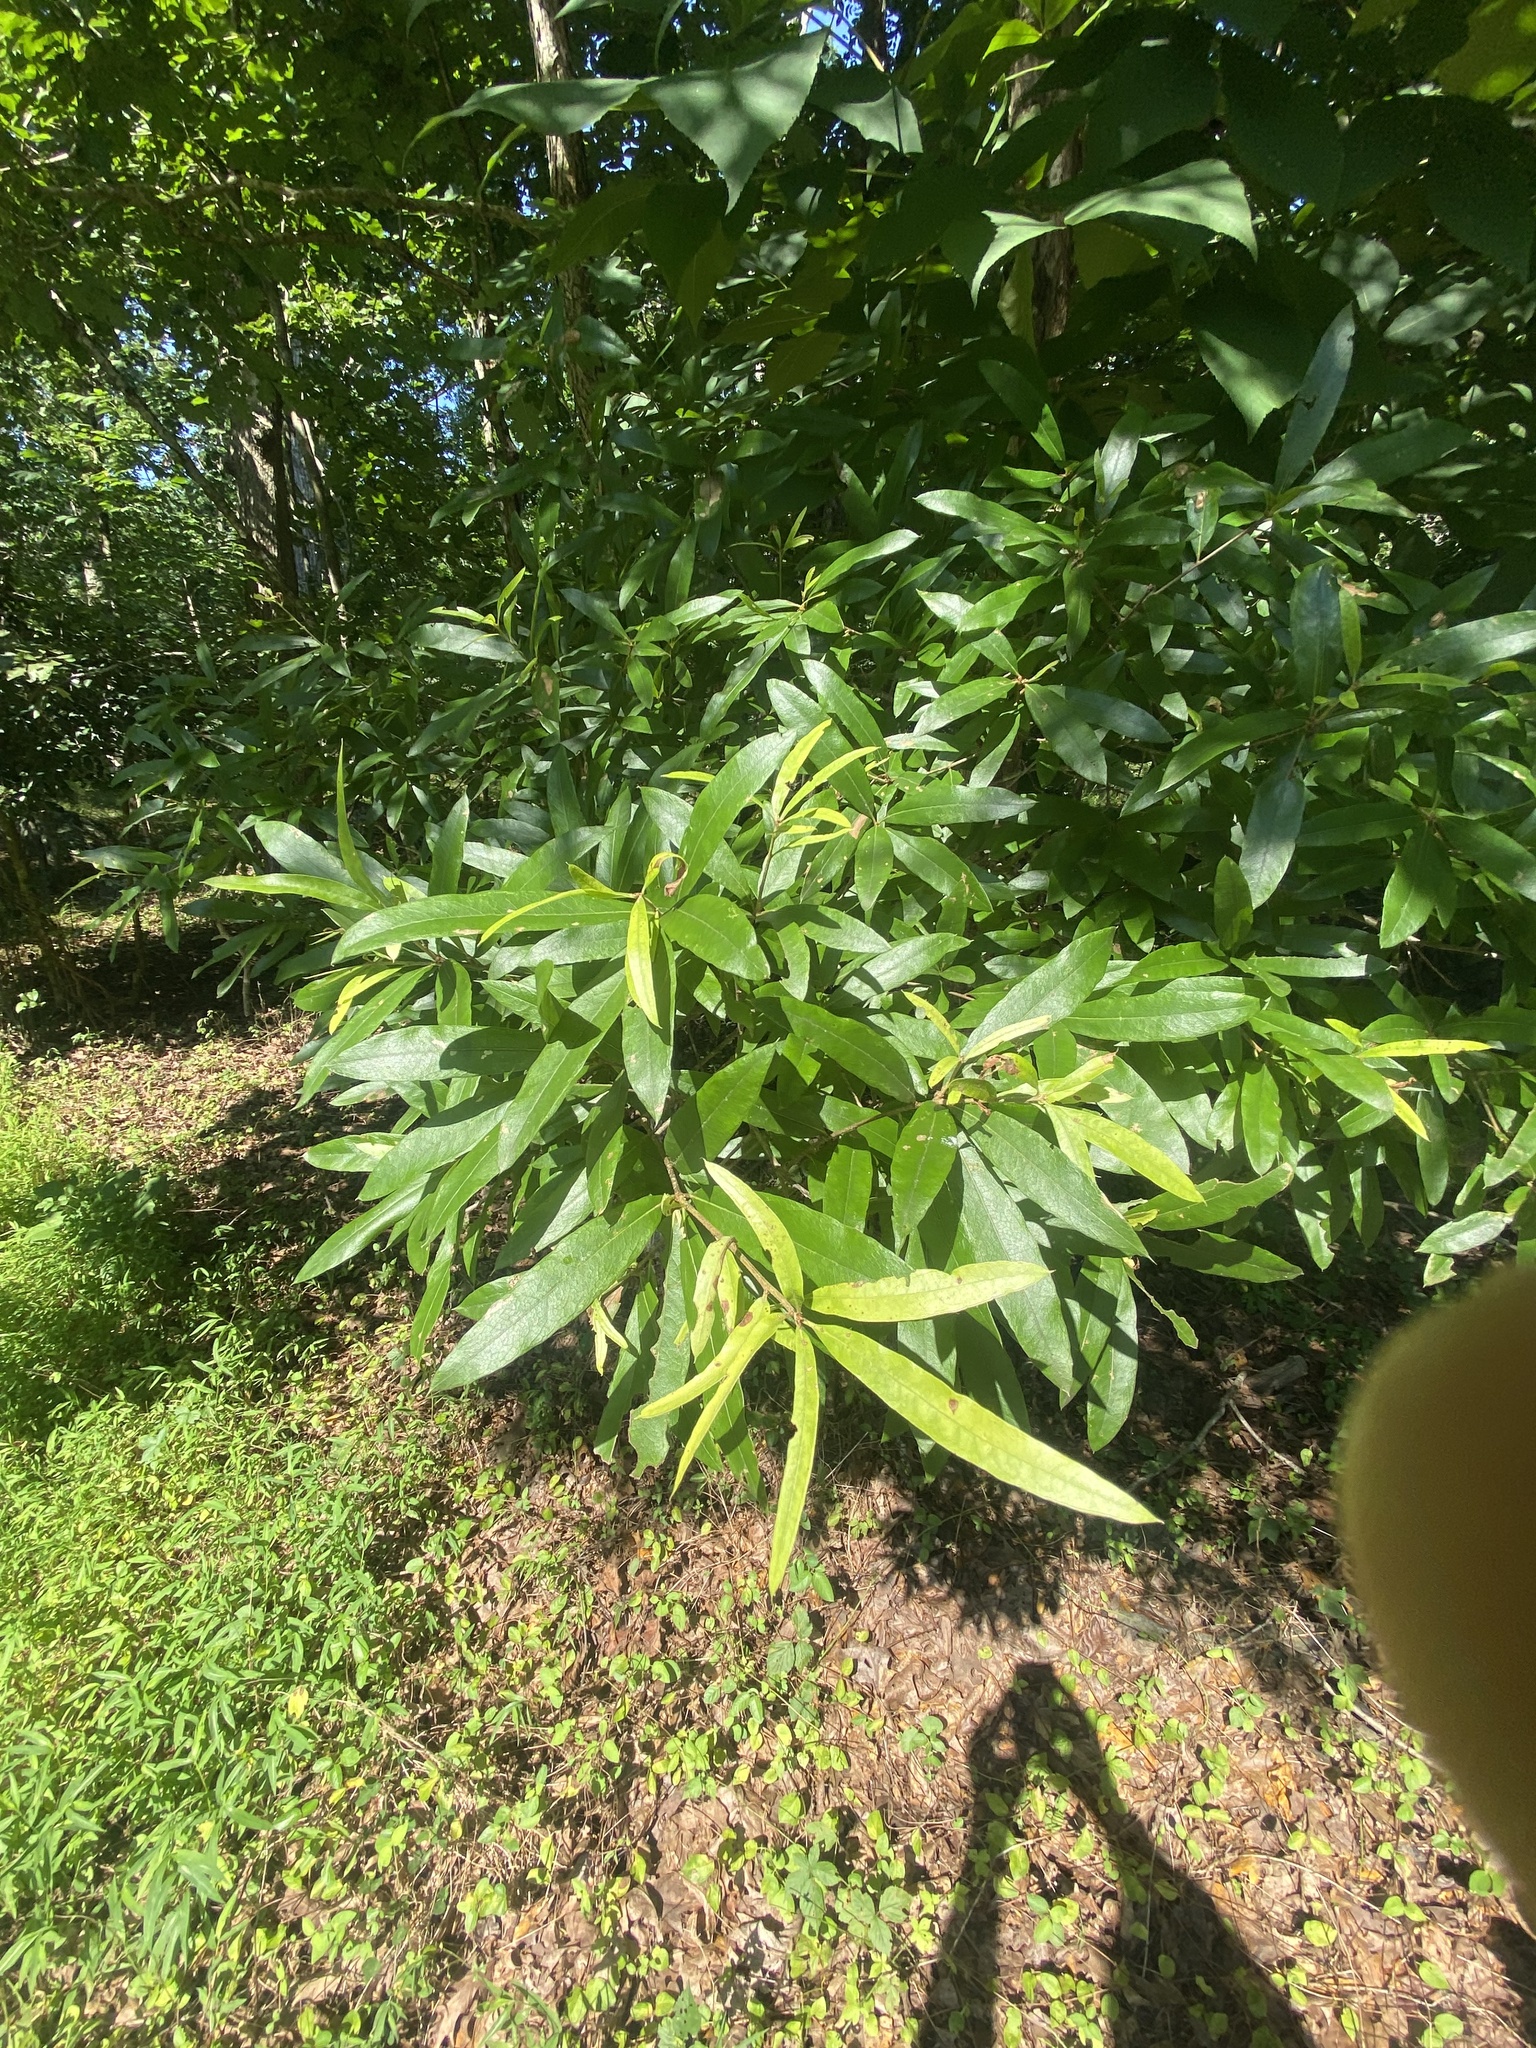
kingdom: Plantae
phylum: Tracheophyta
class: Magnoliopsida
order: Fagales
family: Fagaceae
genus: Quercus
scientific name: Quercus phellos
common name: Willow oak
